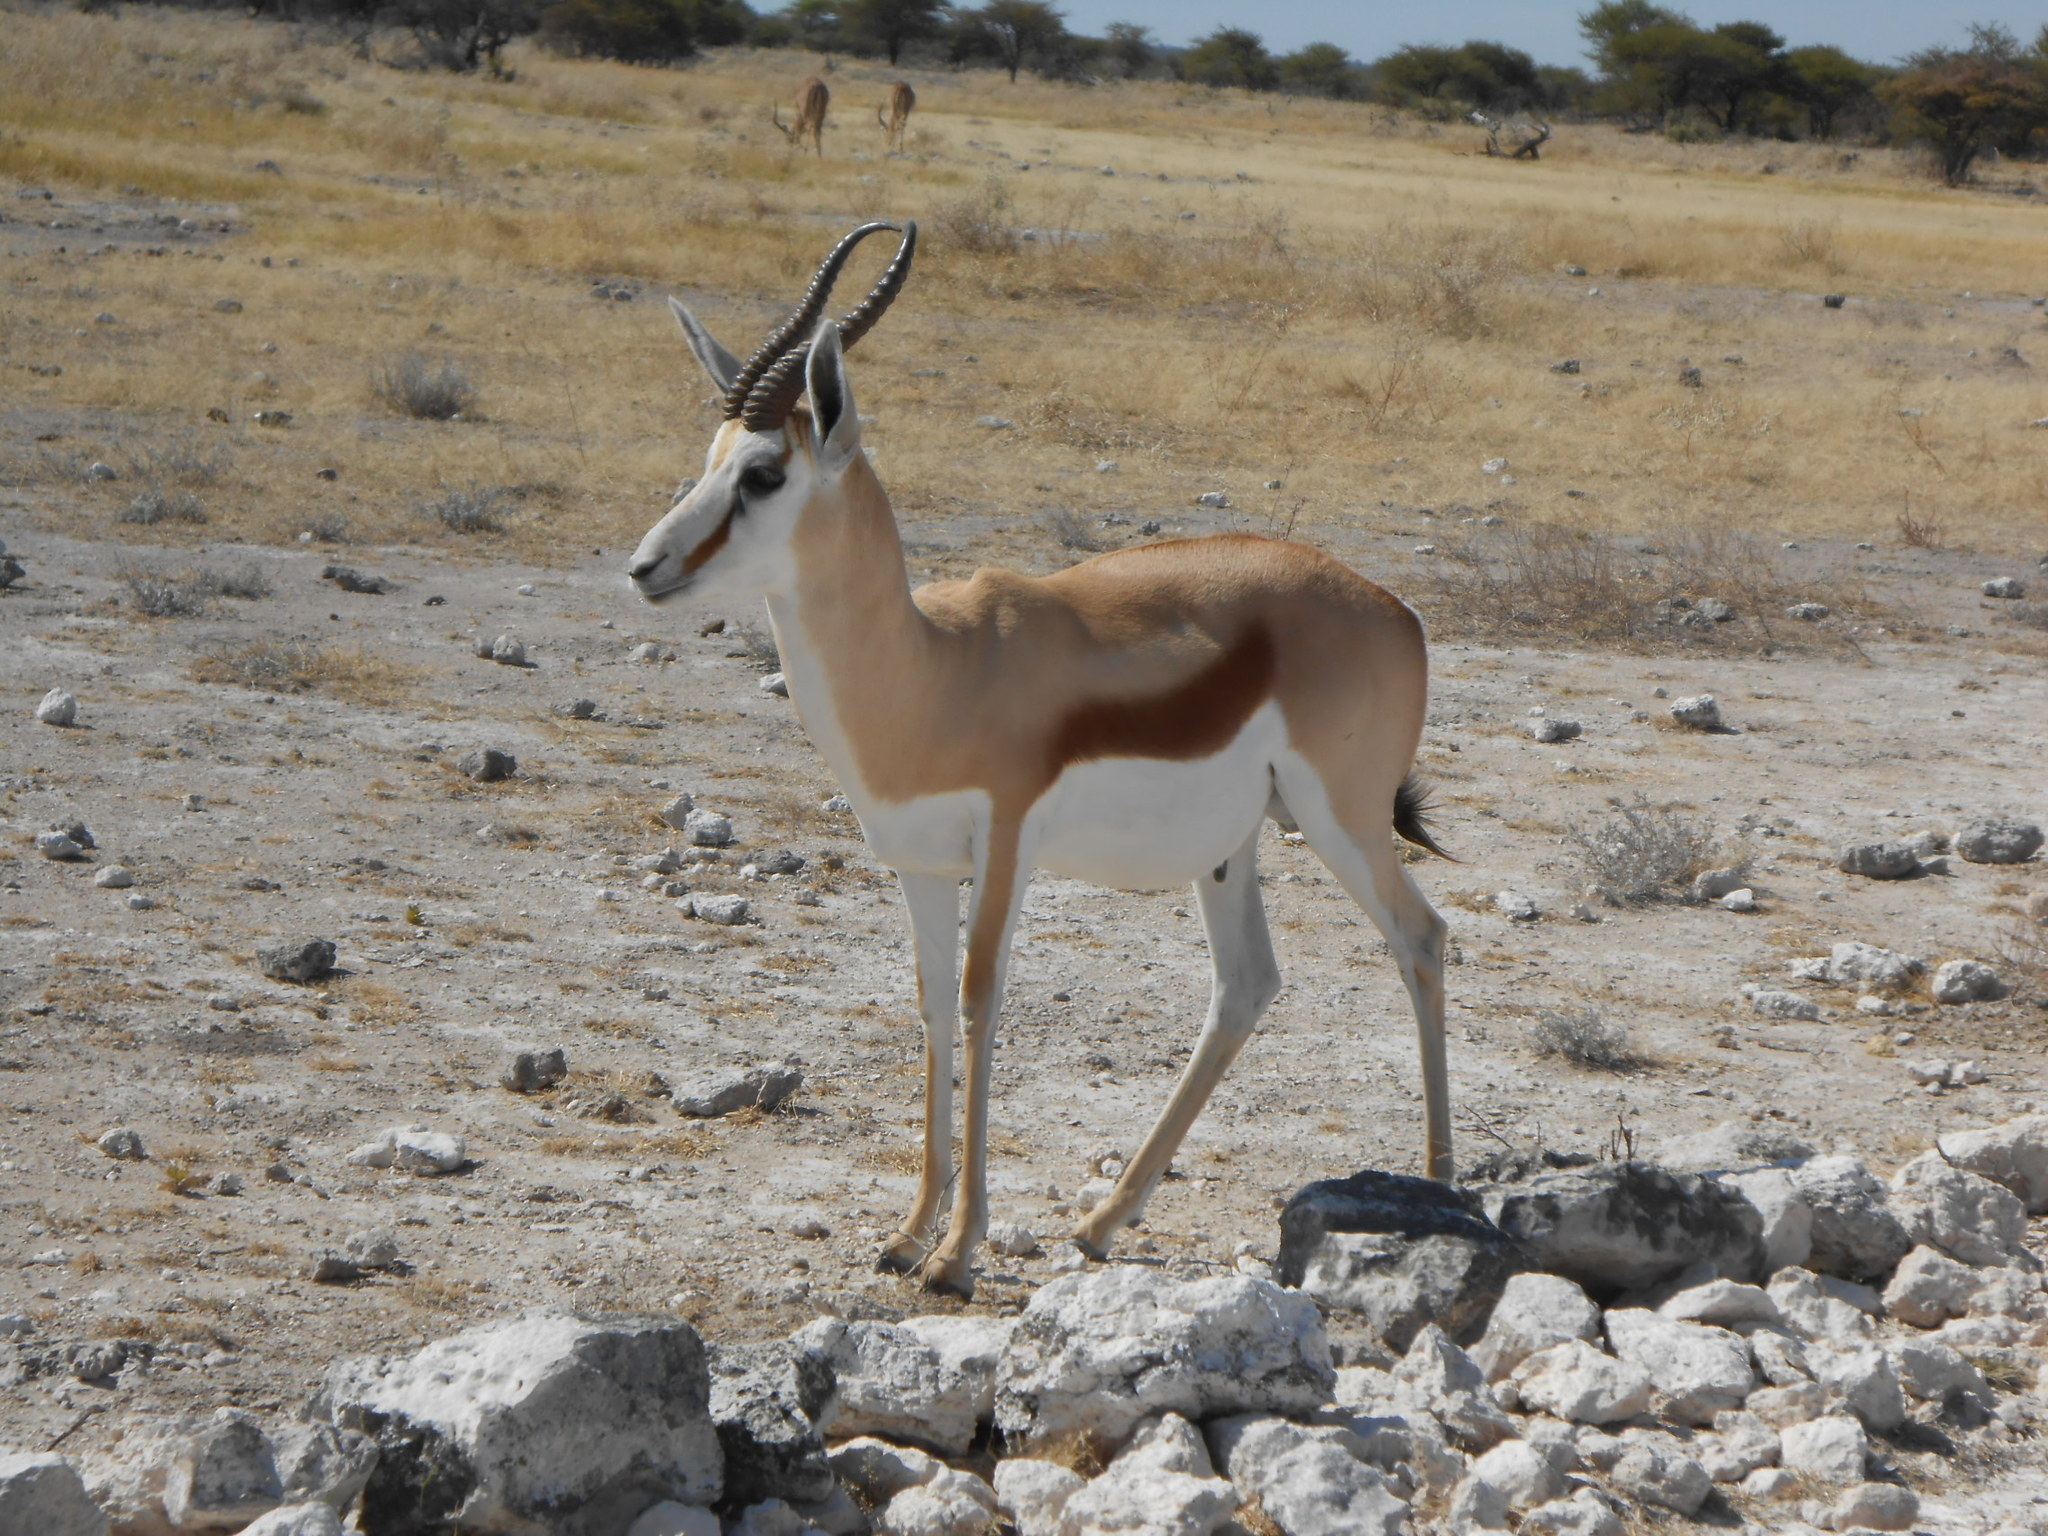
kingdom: Animalia
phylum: Chordata
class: Mammalia
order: Artiodactyla
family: Bovidae
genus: Antidorcas
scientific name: Antidorcas marsupialis
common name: Springbok
